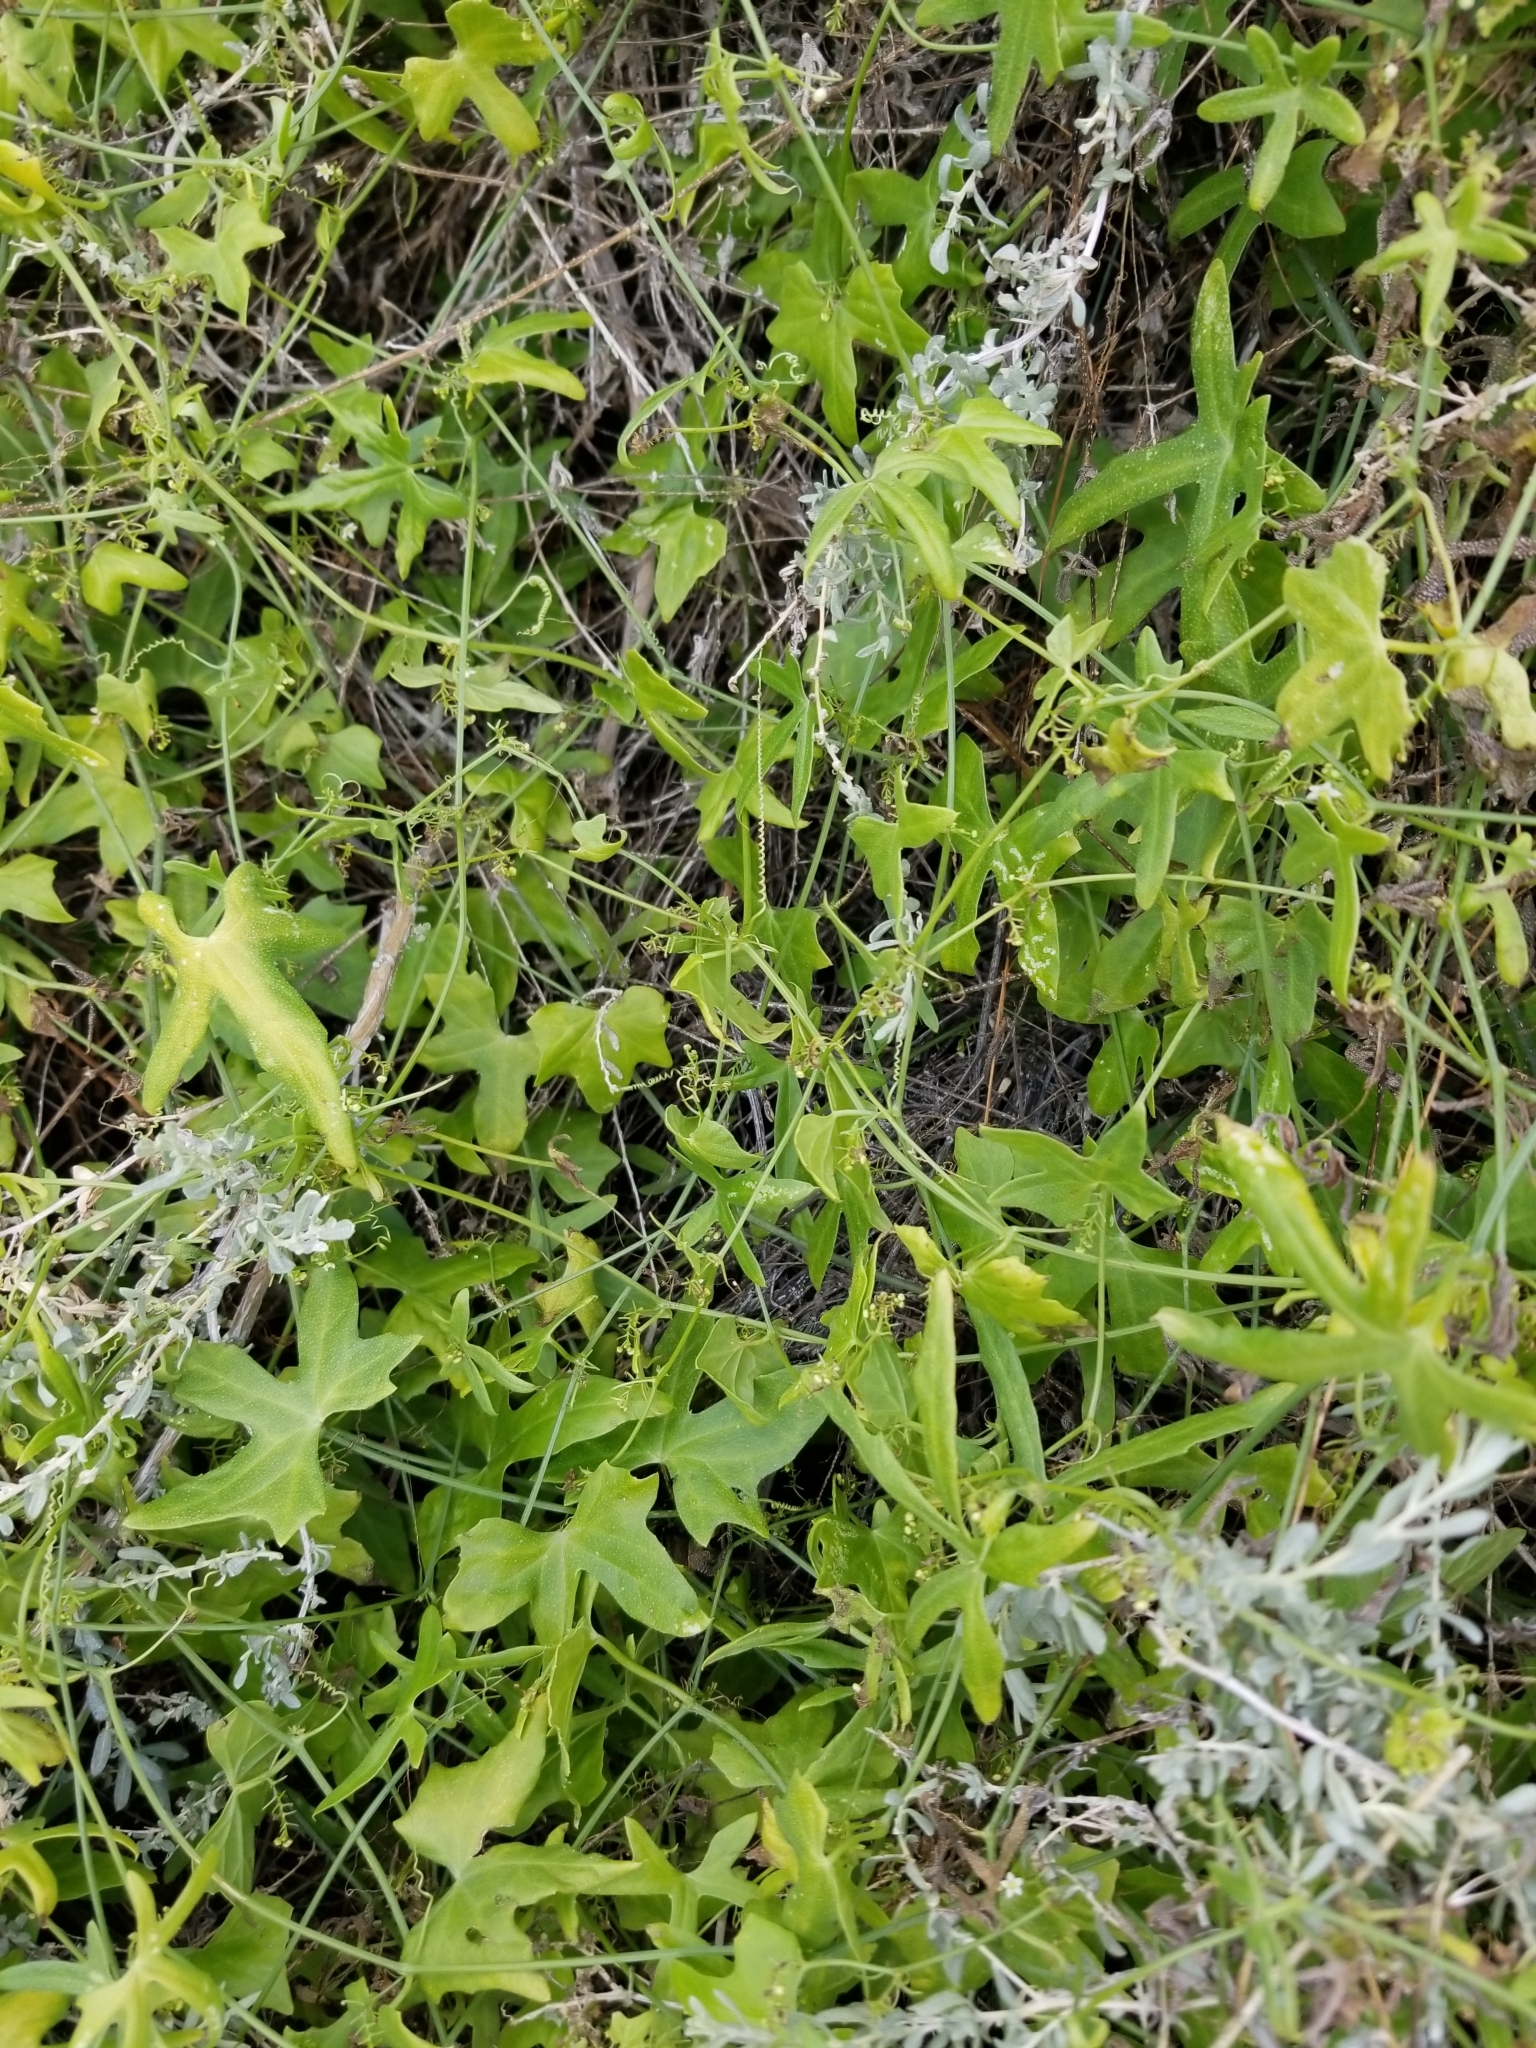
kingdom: Plantae
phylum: Tracheophyta
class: Magnoliopsida
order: Cucurbitales
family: Cucurbitaceae
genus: Echinopepon
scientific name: Echinopepon bigelovii
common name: Desert starvine
